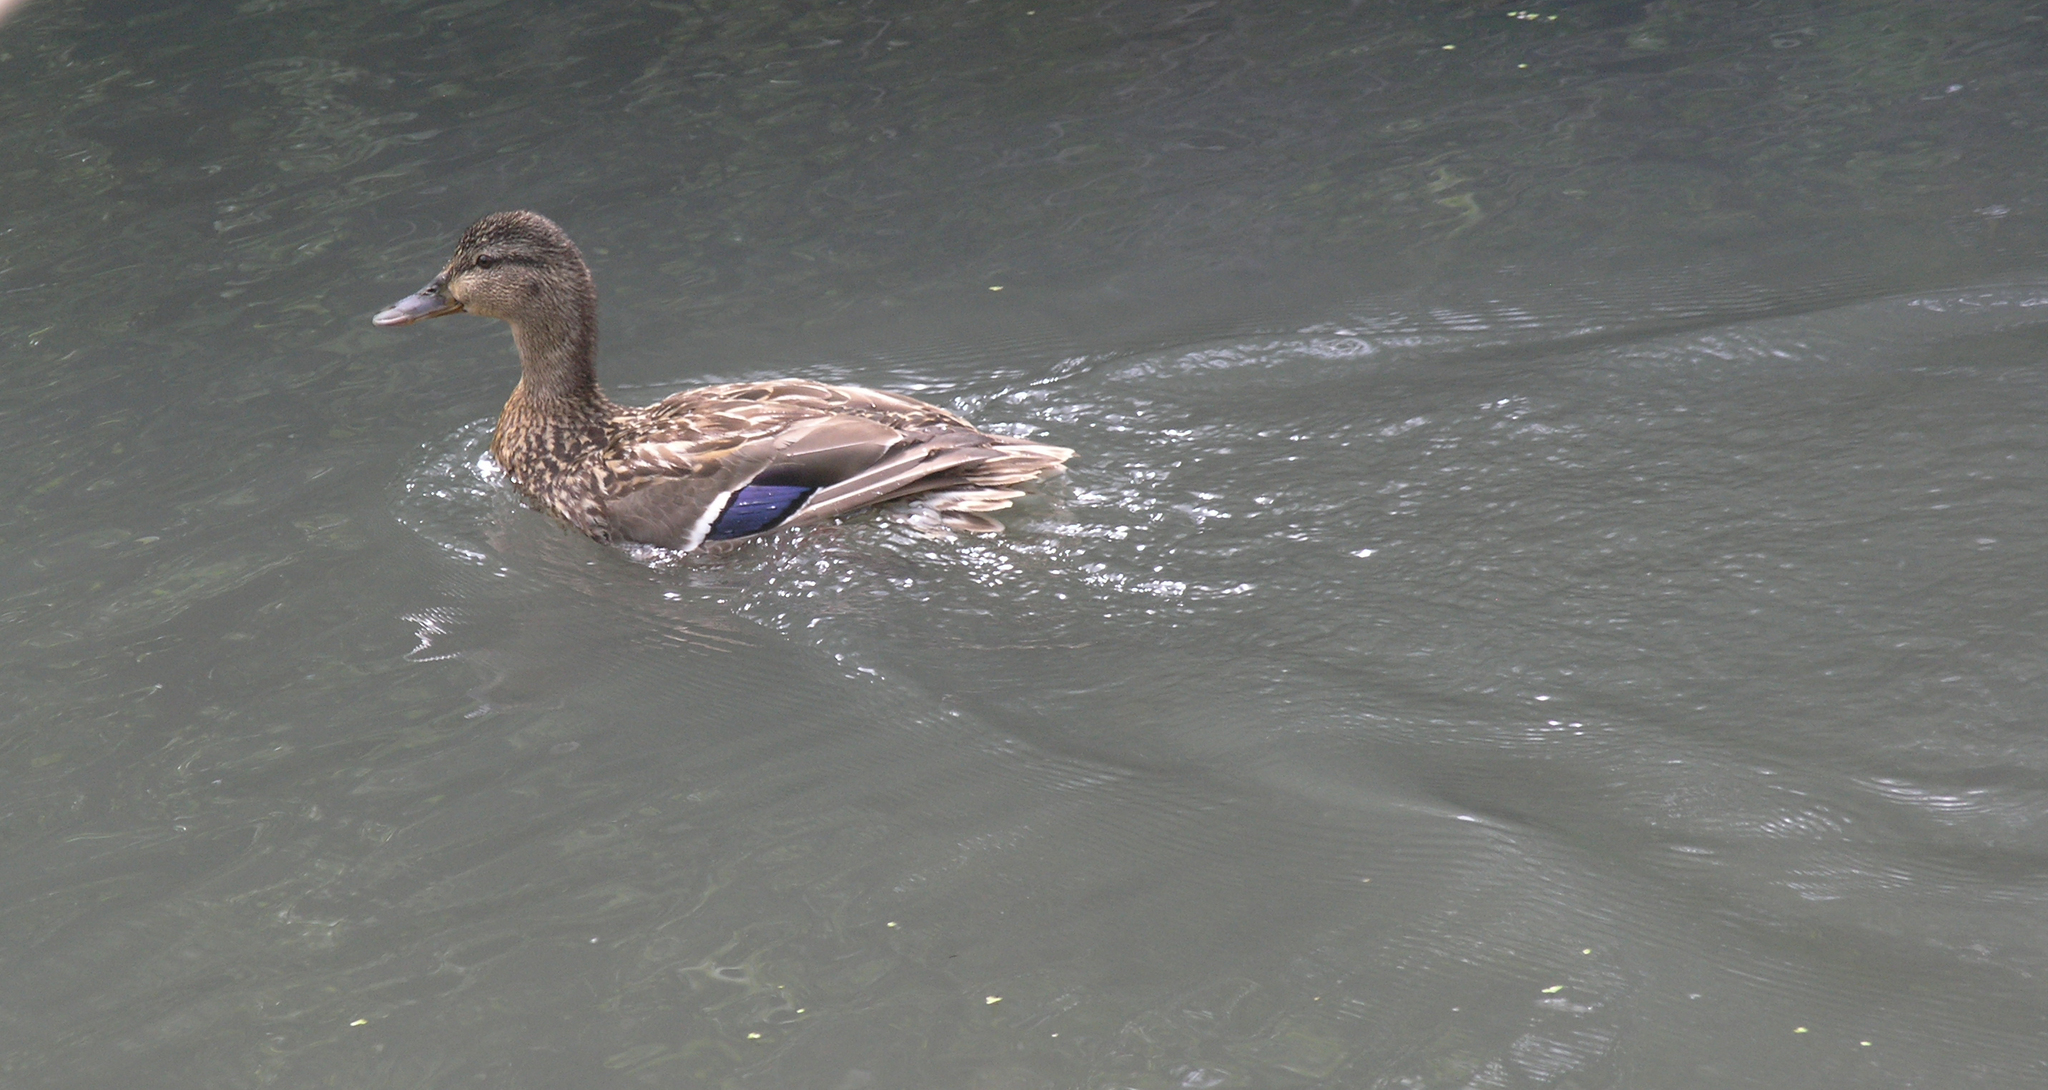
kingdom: Animalia
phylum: Chordata
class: Aves
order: Anseriformes
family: Anatidae
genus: Anas
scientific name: Anas platyrhynchos
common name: Mallard
